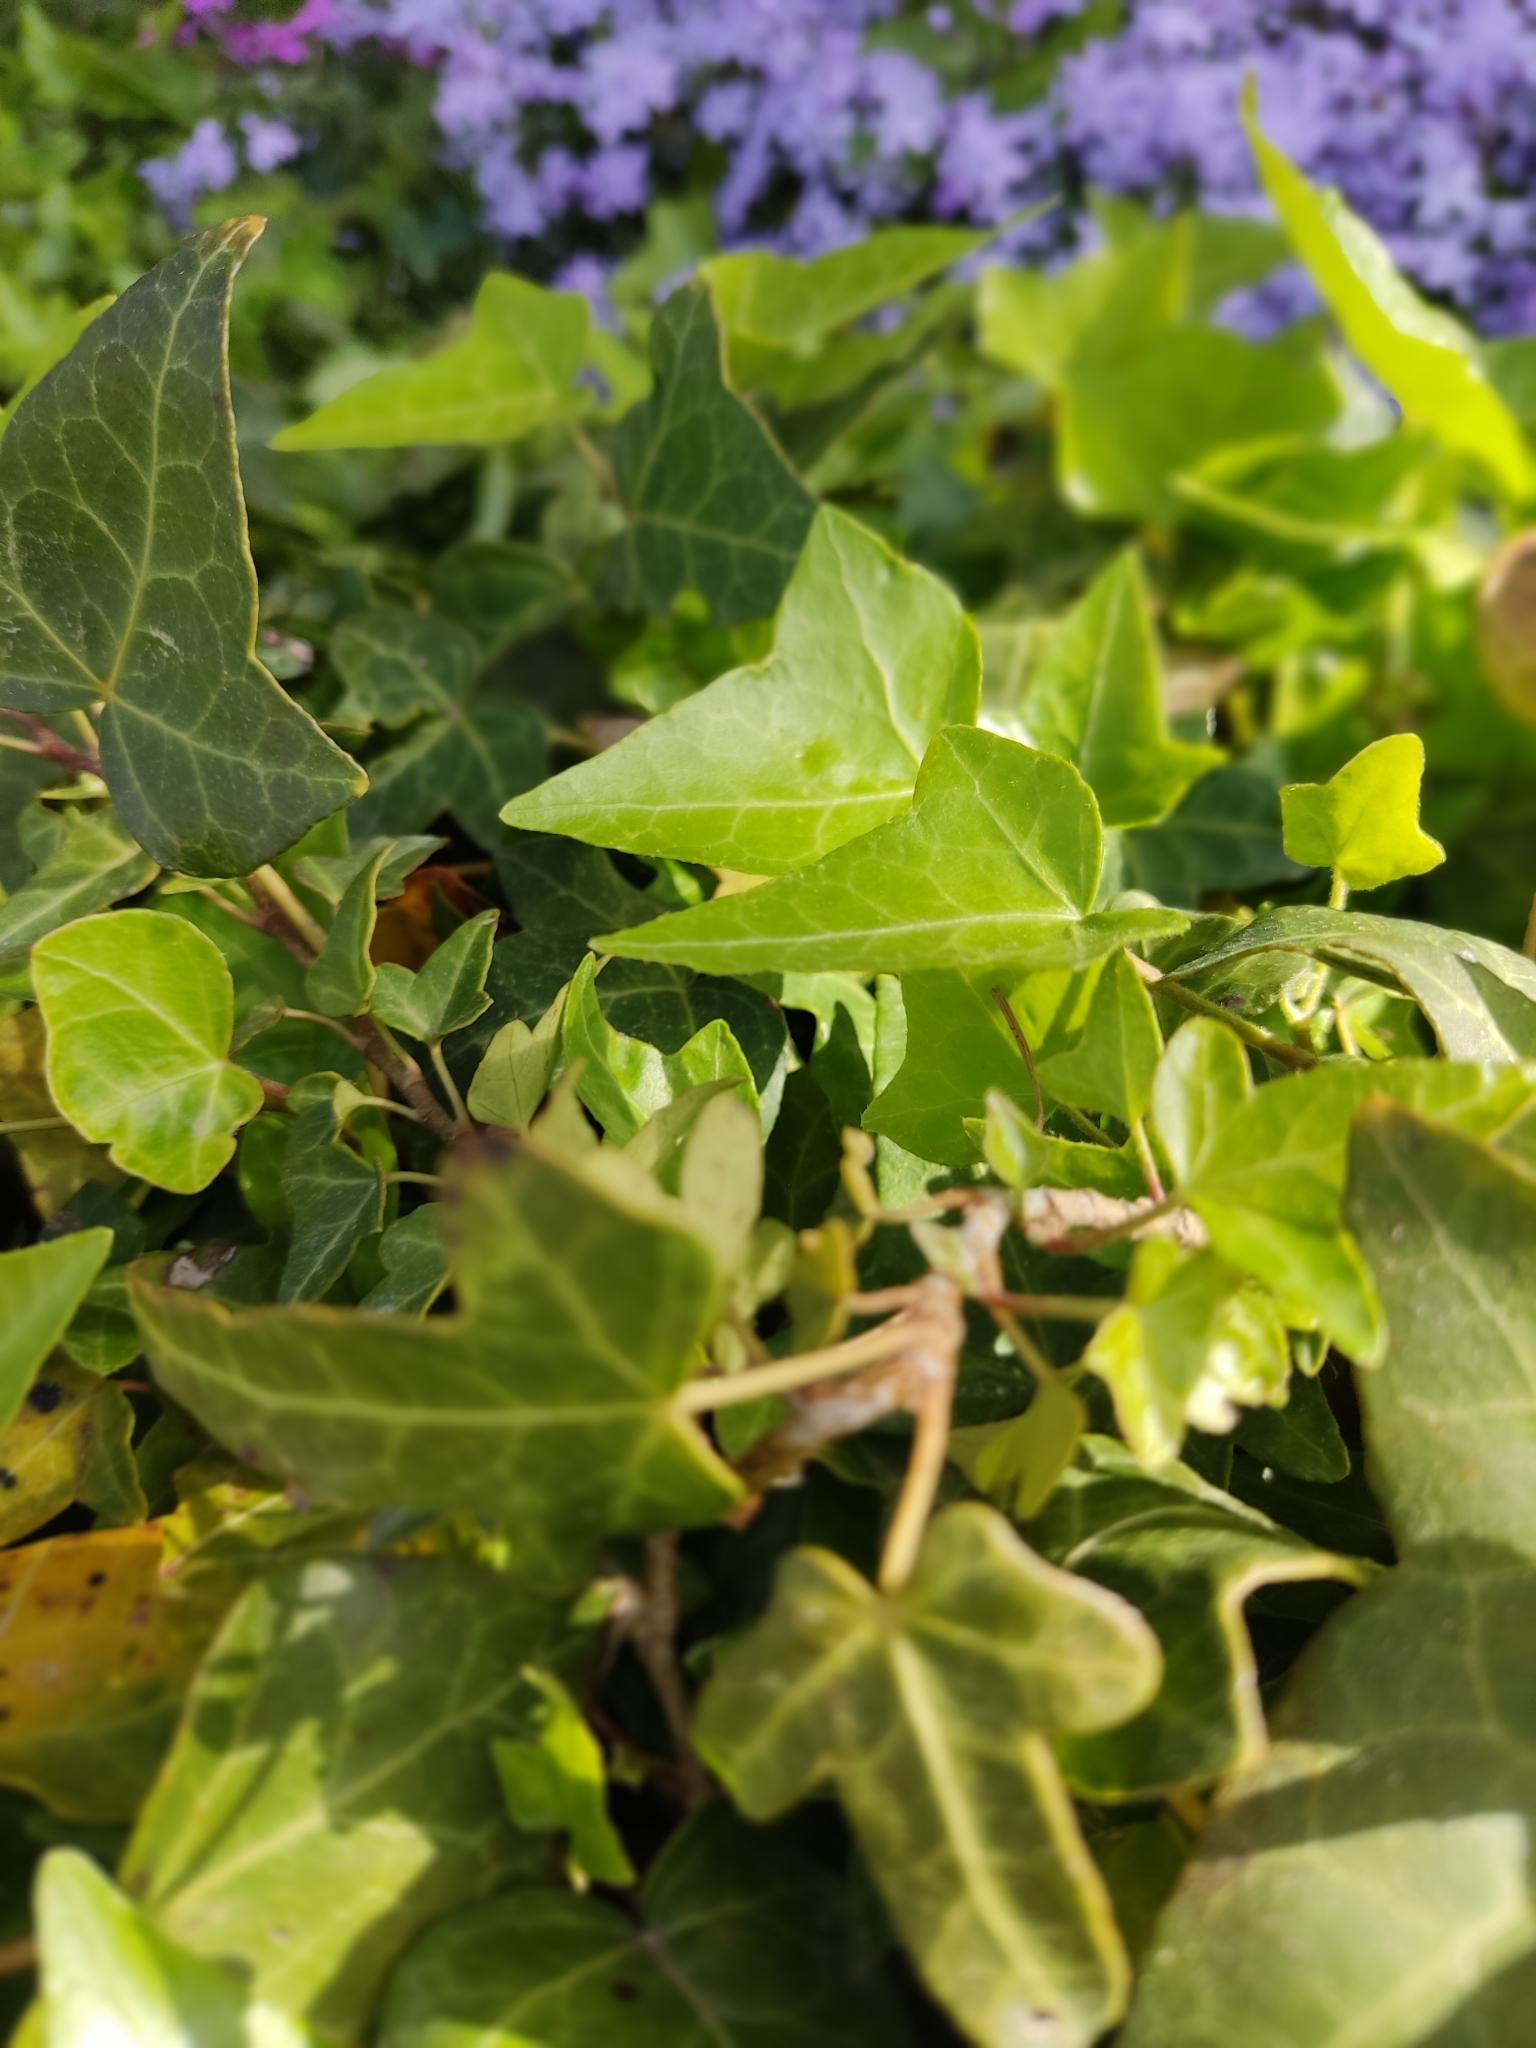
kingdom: Plantae
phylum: Tracheophyta
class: Magnoliopsida
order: Apiales
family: Araliaceae
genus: Hedera
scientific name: Hedera helix
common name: Ivy
